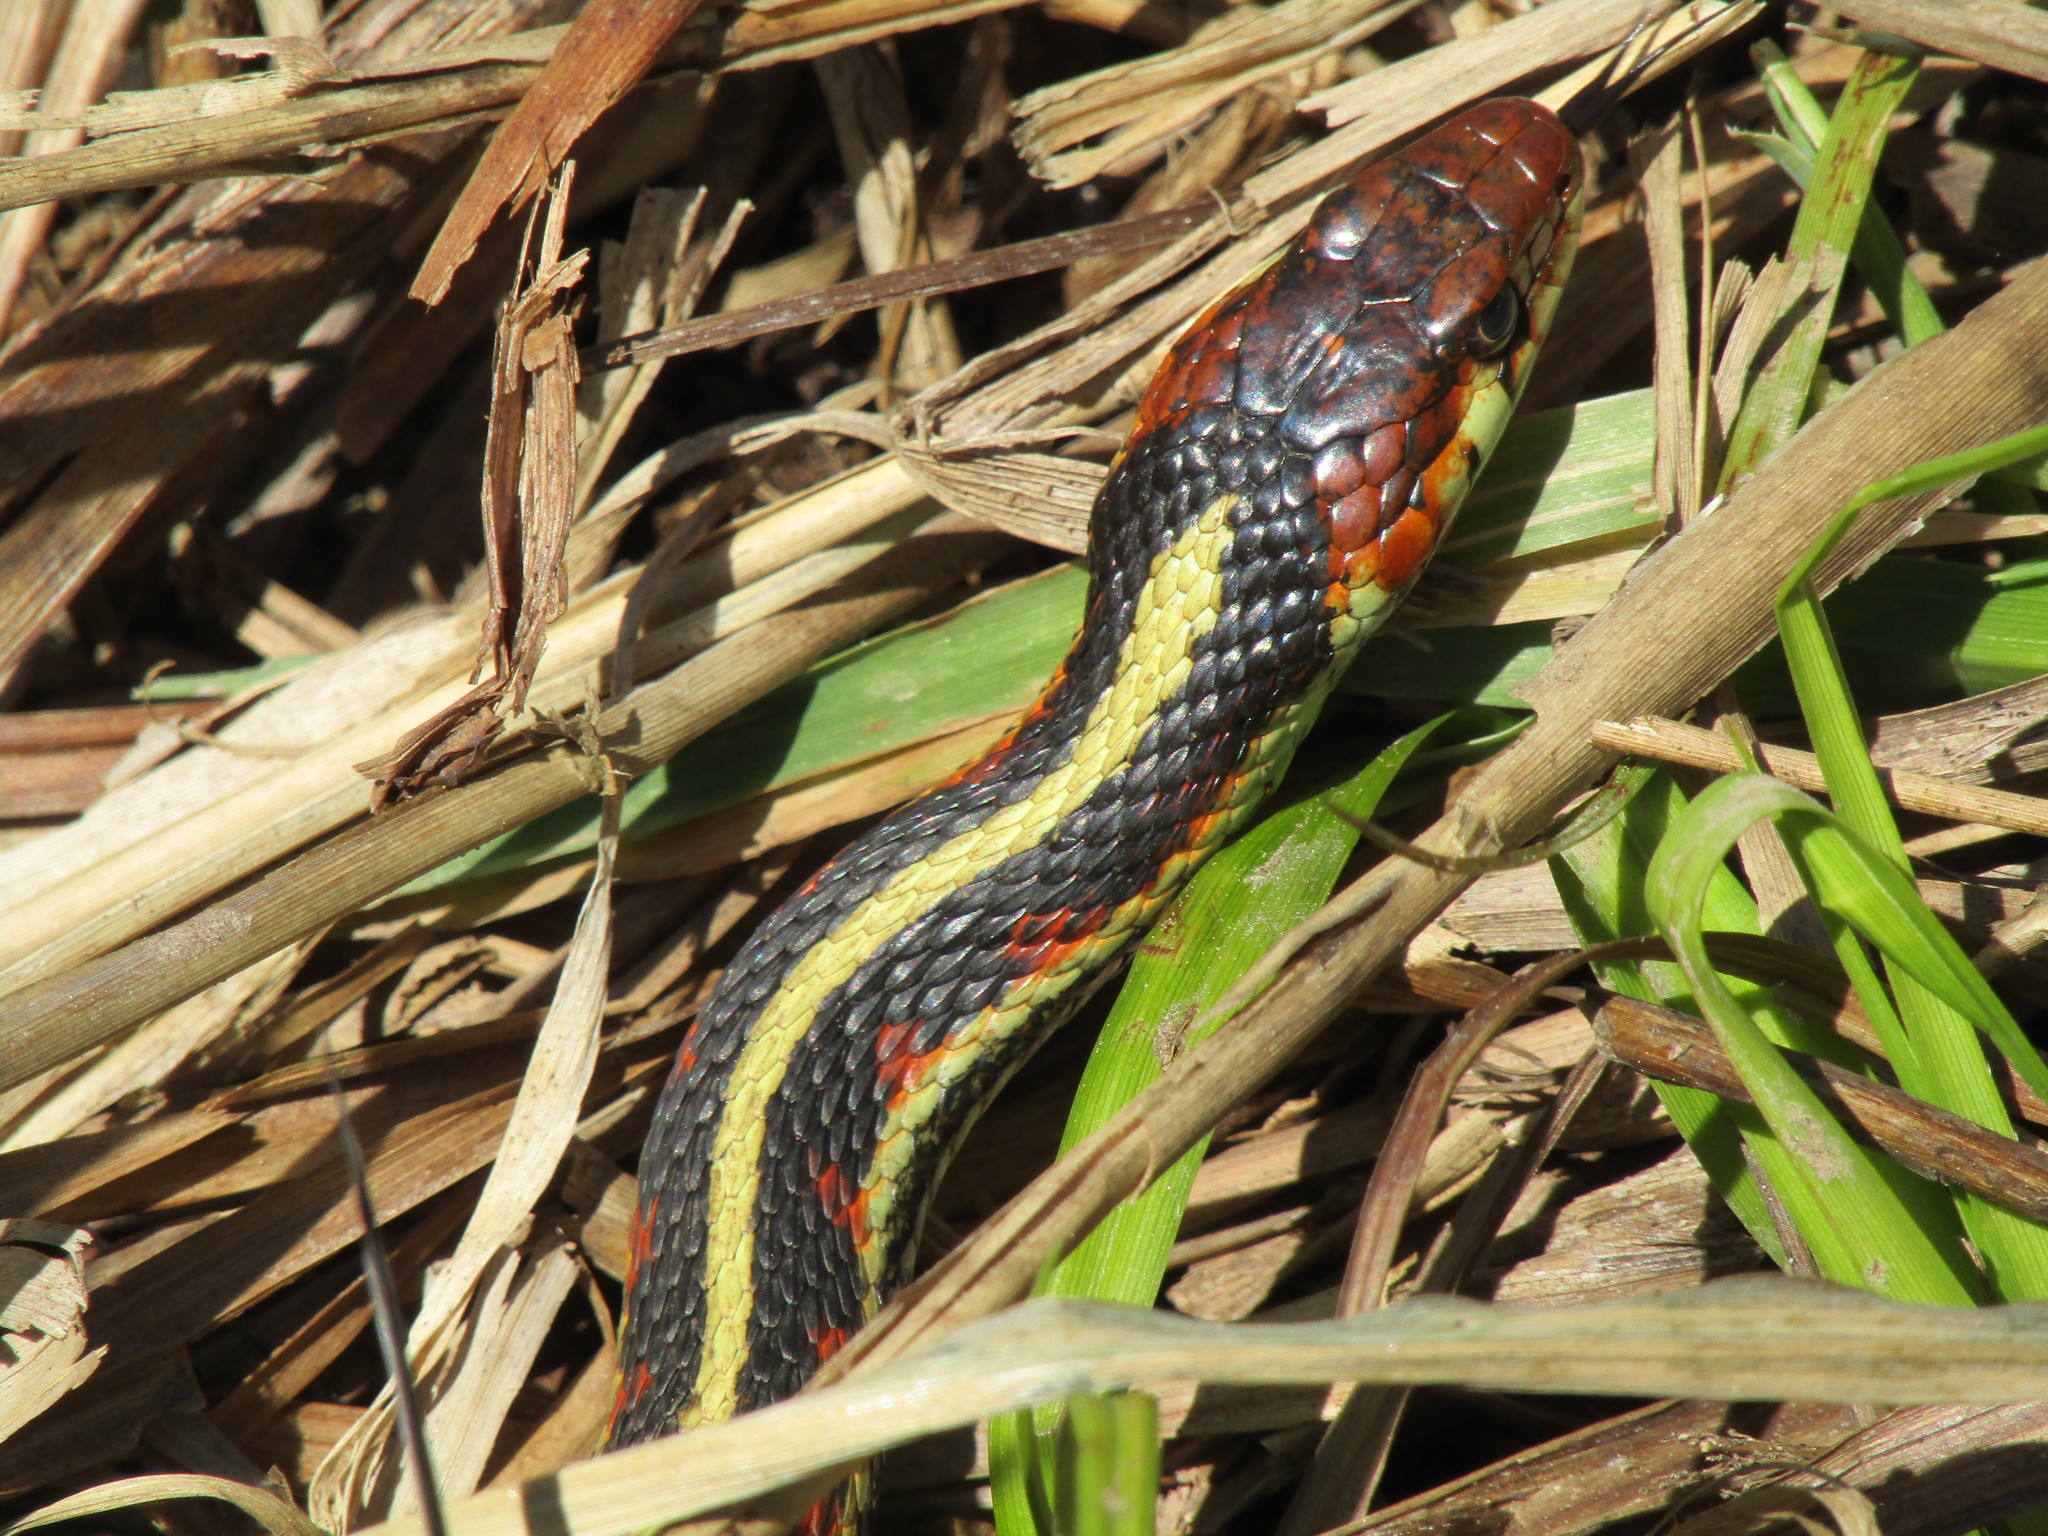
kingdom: Animalia
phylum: Chordata
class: Squamata
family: Colubridae
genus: Thamnophis
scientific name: Thamnophis sirtalis
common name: Common garter snake
